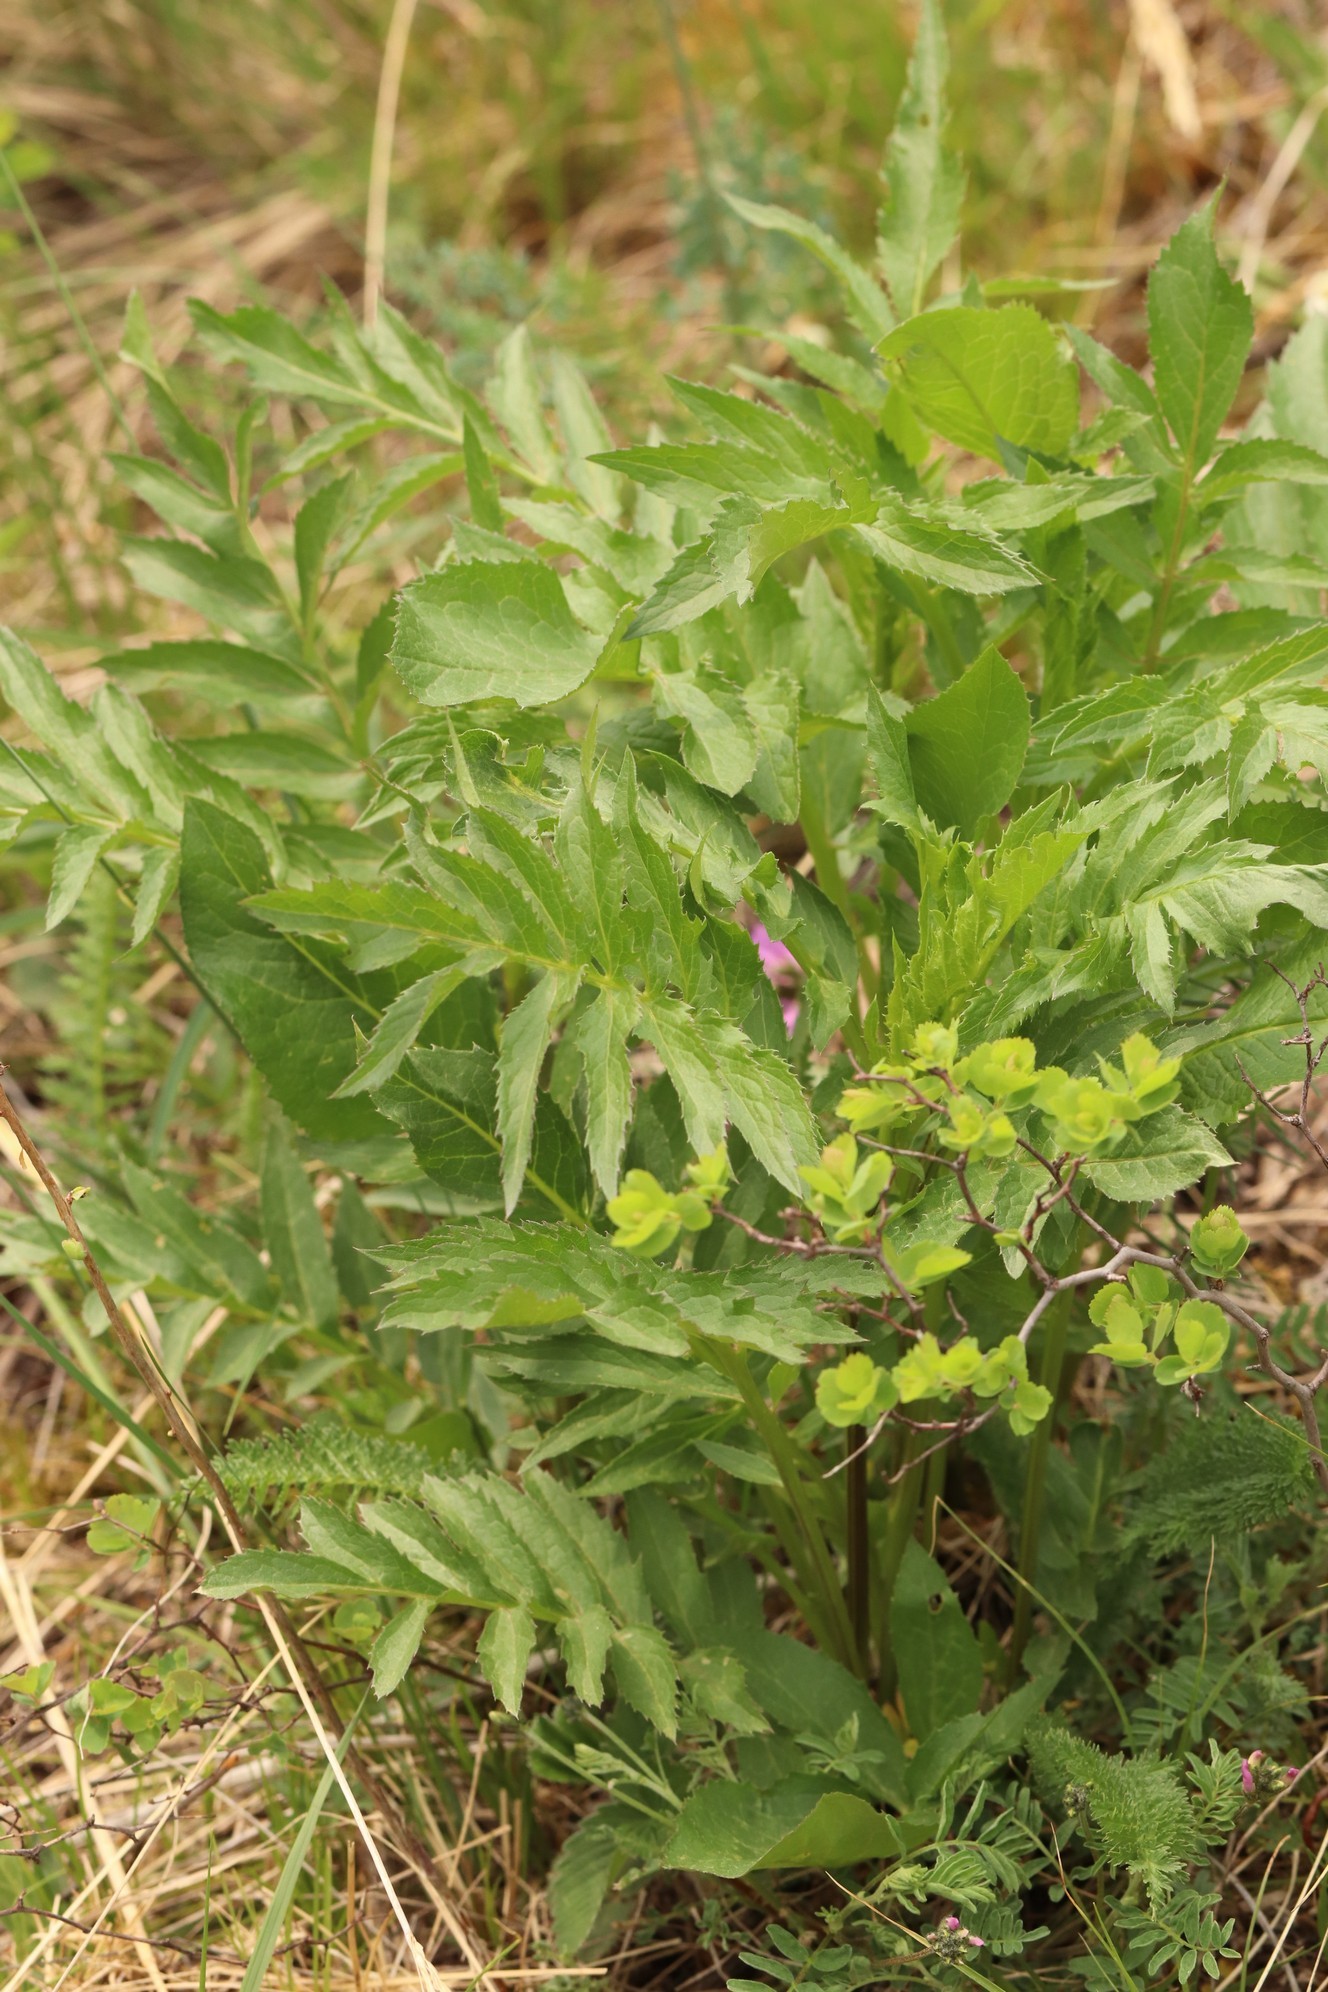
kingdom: Plantae
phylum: Tracheophyta
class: Magnoliopsida
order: Asterales
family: Asteraceae
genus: Serratula
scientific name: Serratula coronata
